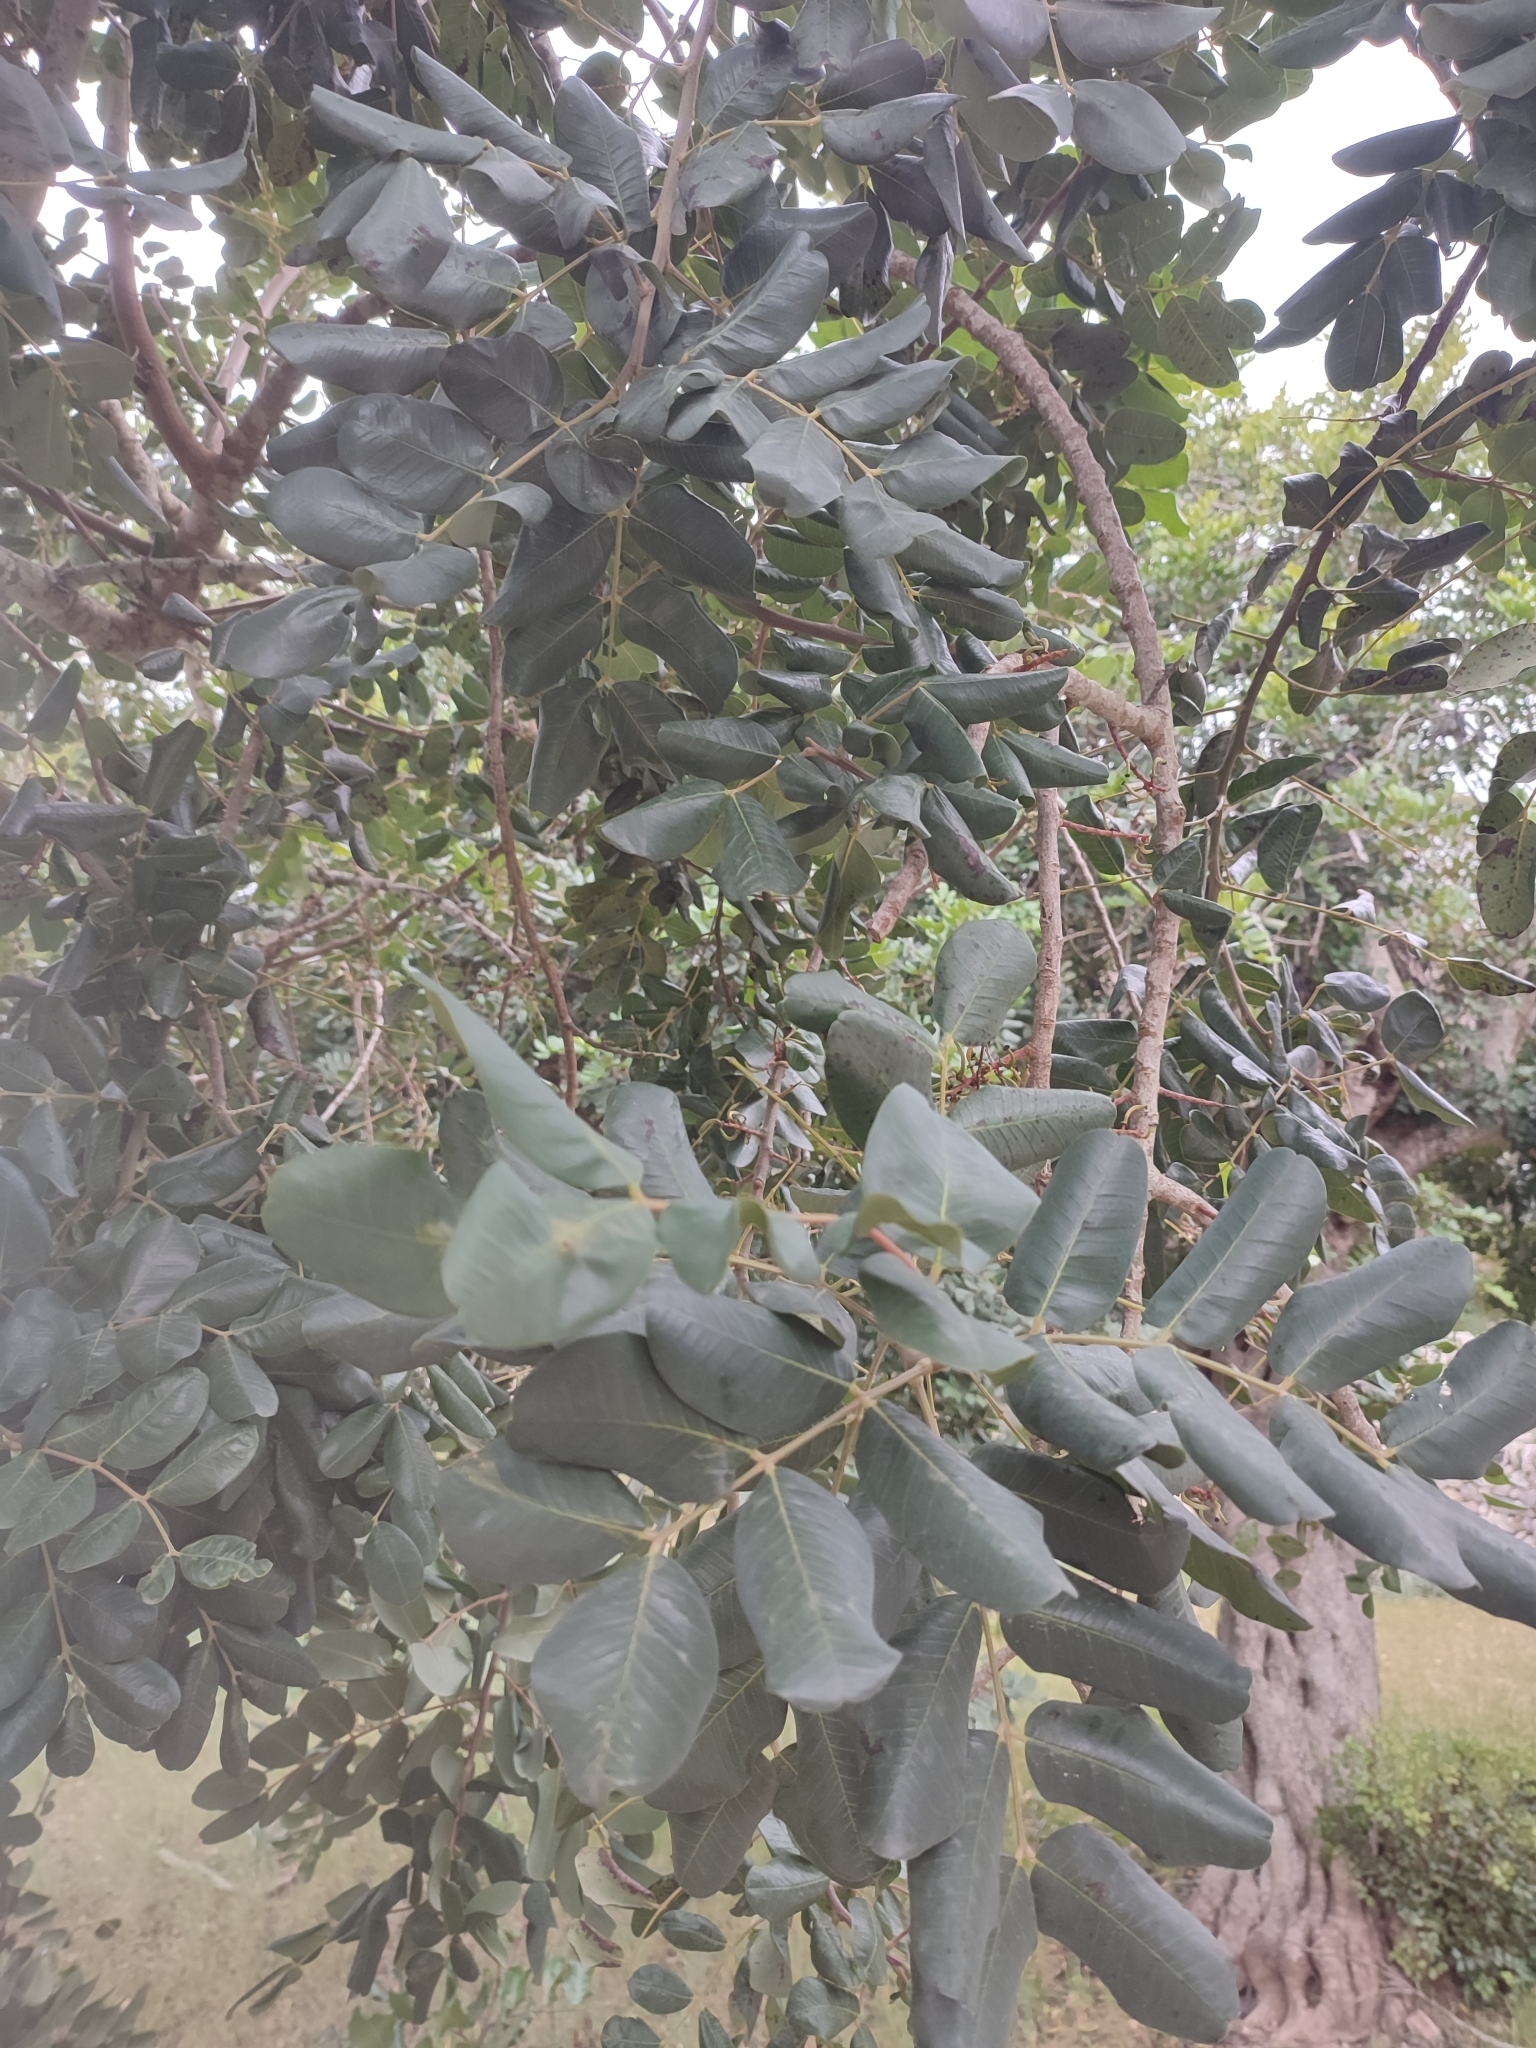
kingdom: Plantae
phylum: Tracheophyta
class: Magnoliopsida
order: Fabales
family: Fabaceae
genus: Ceratonia
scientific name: Ceratonia siliqua
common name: Carob
